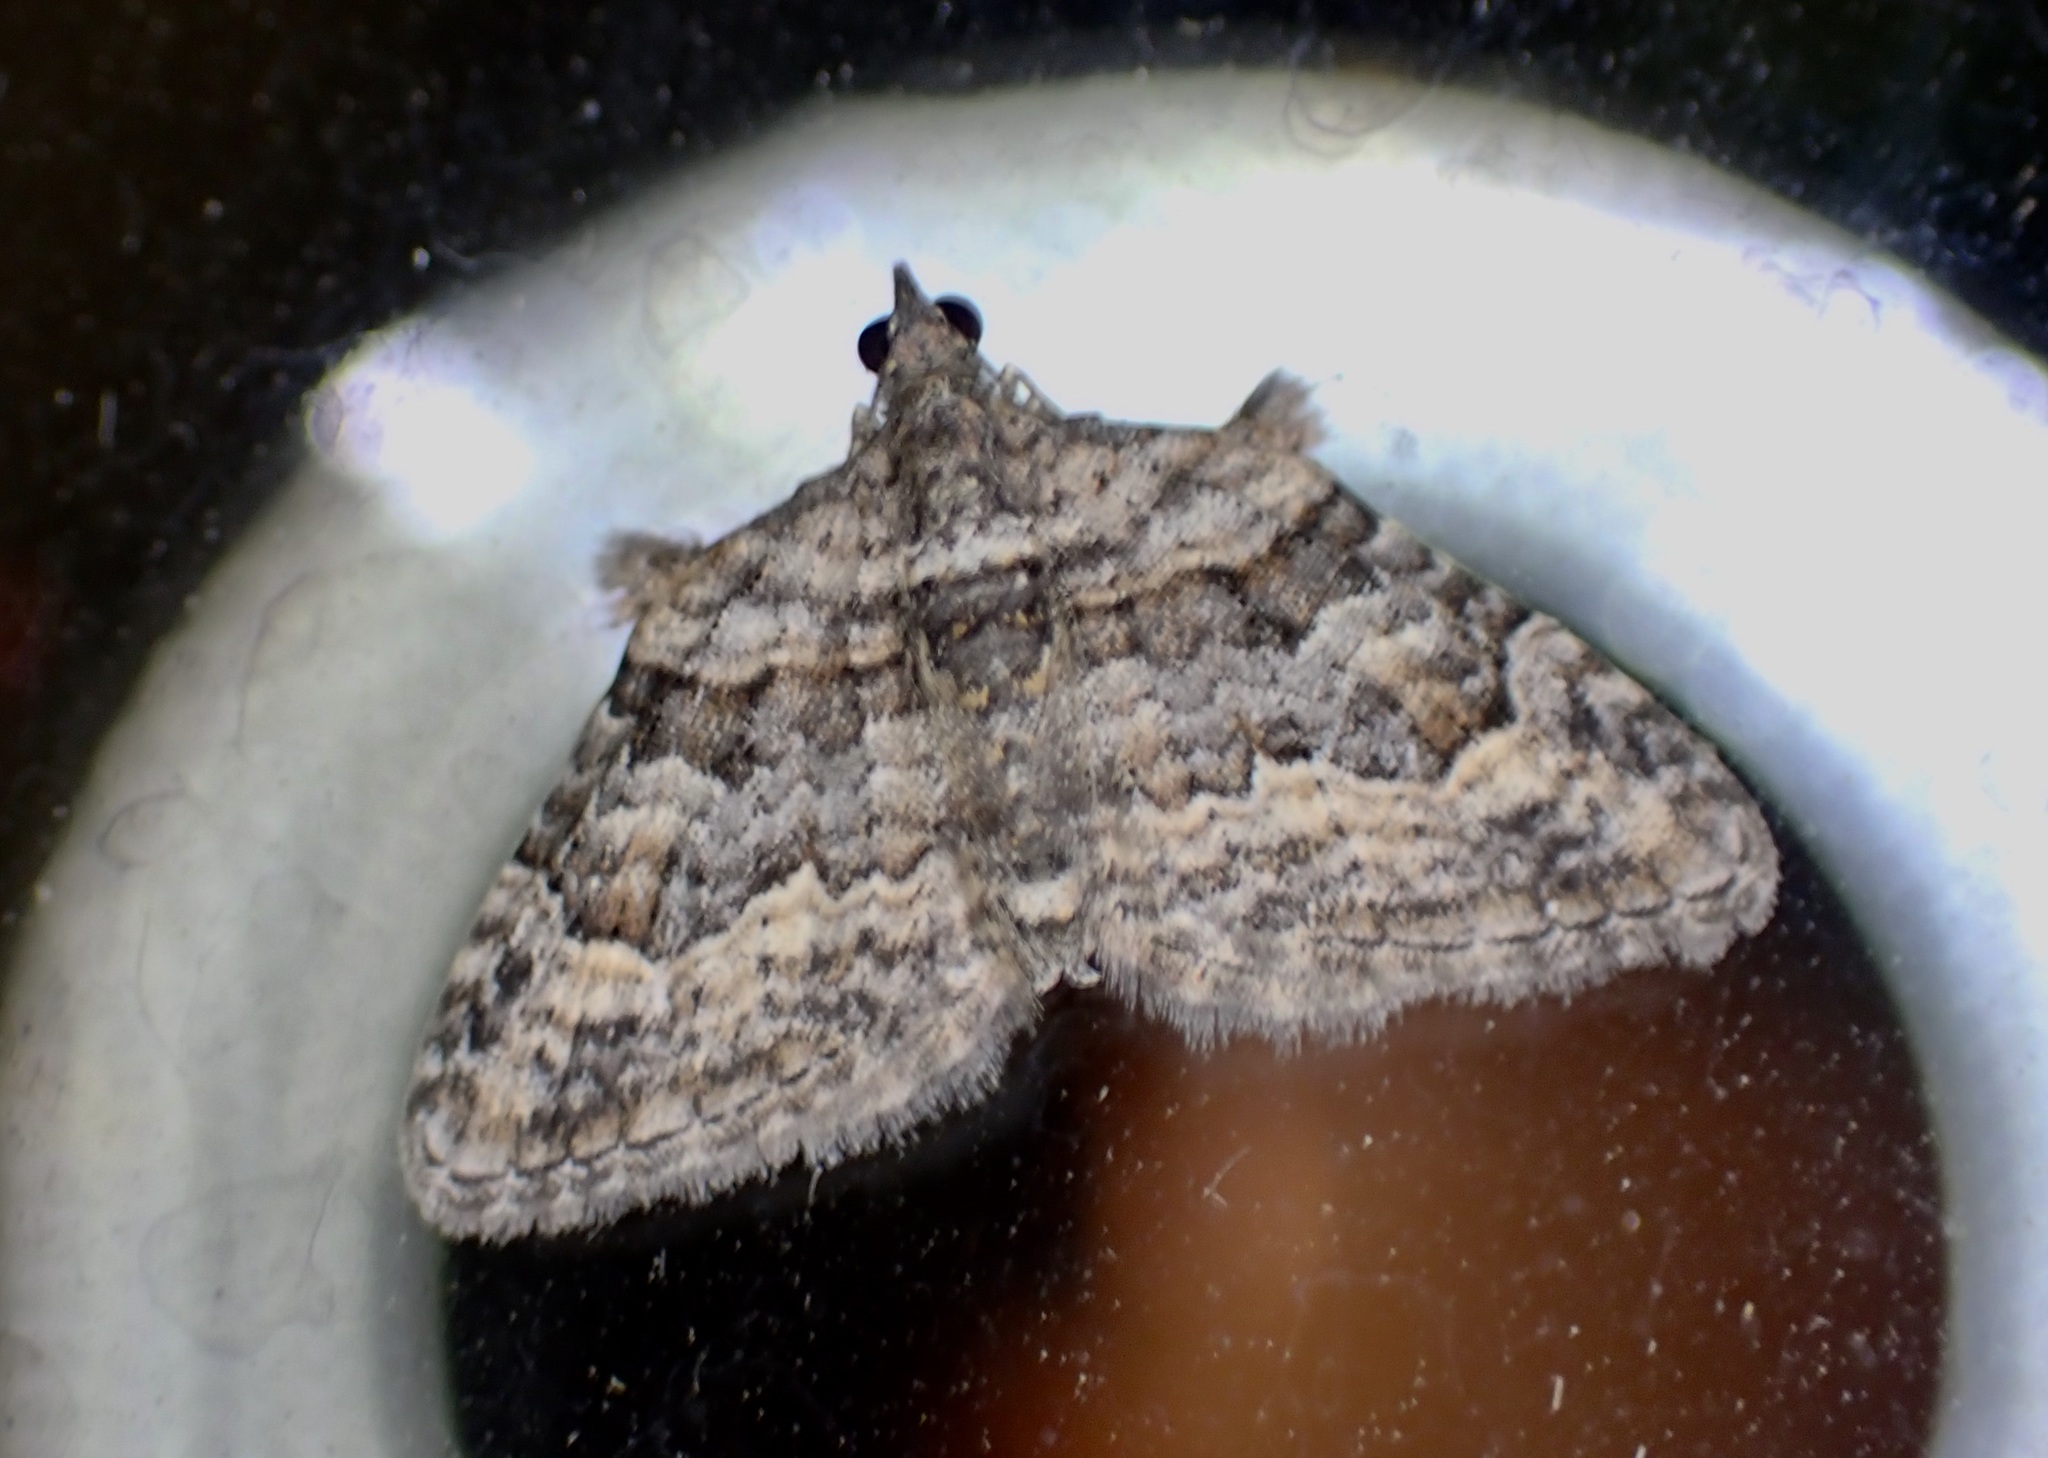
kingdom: Animalia
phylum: Arthropoda
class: Insecta
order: Lepidoptera
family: Geometridae
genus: Phrissogonus
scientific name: Phrissogonus laticostata
